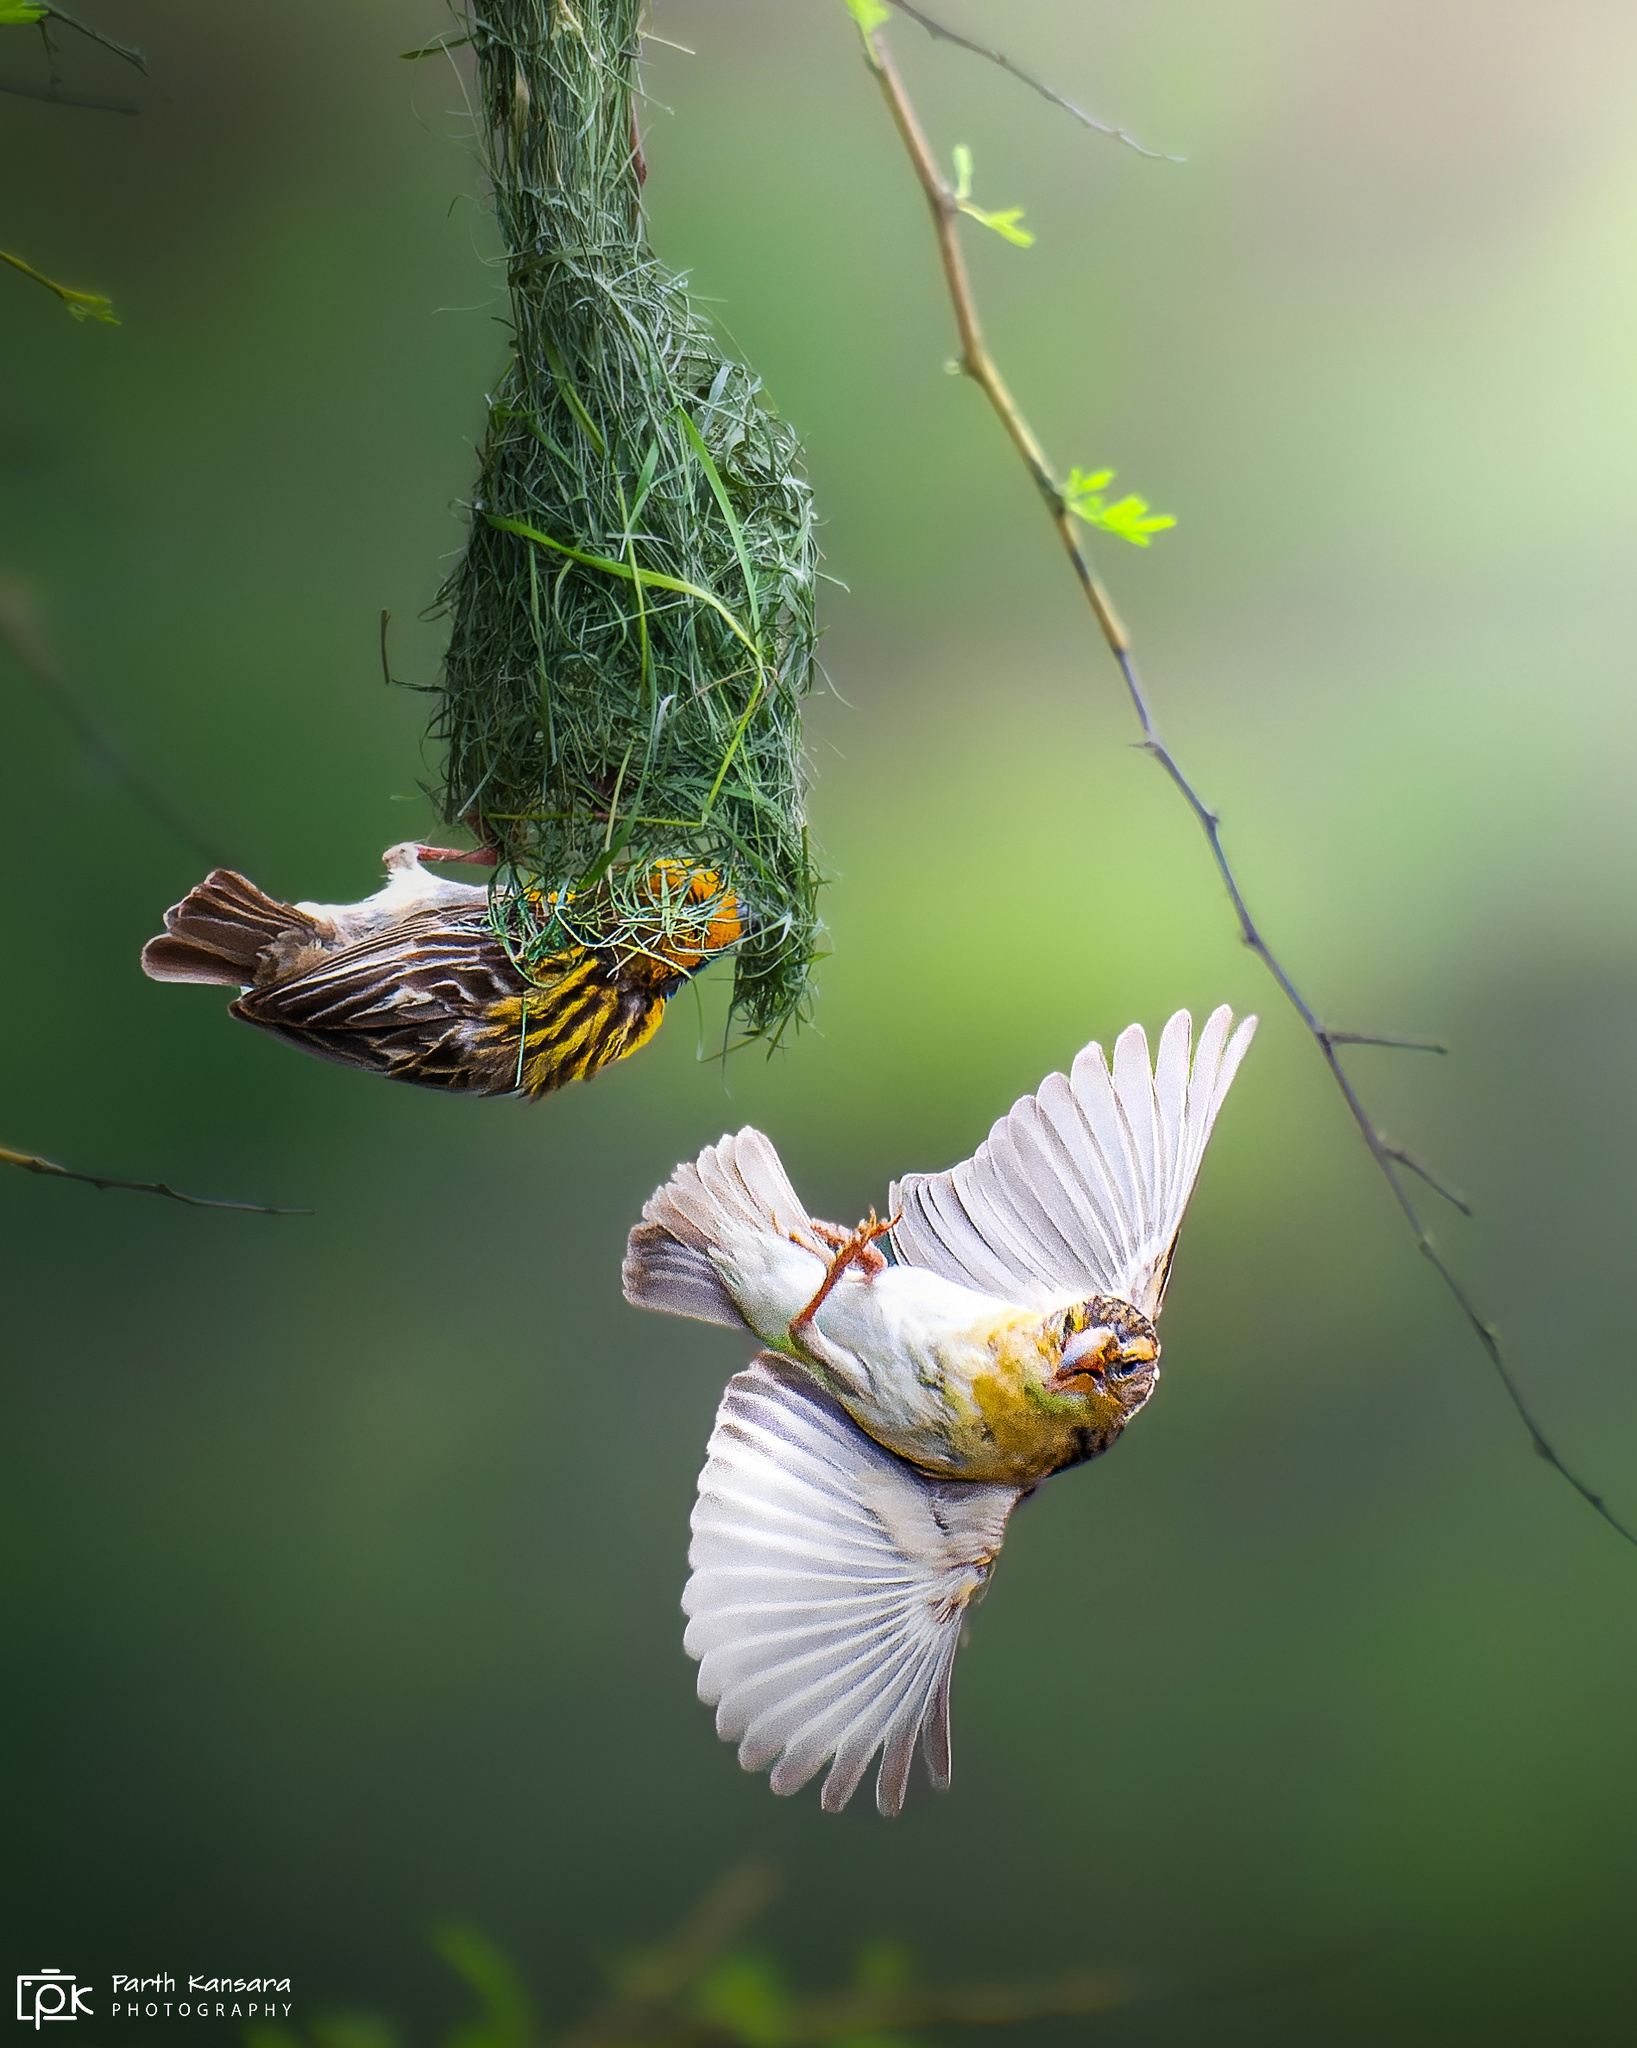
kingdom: Animalia
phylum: Chordata
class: Aves
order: Passeriformes
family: Ploceidae
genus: Ploceus
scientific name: Ploceus philippinus
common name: Baya weaver
